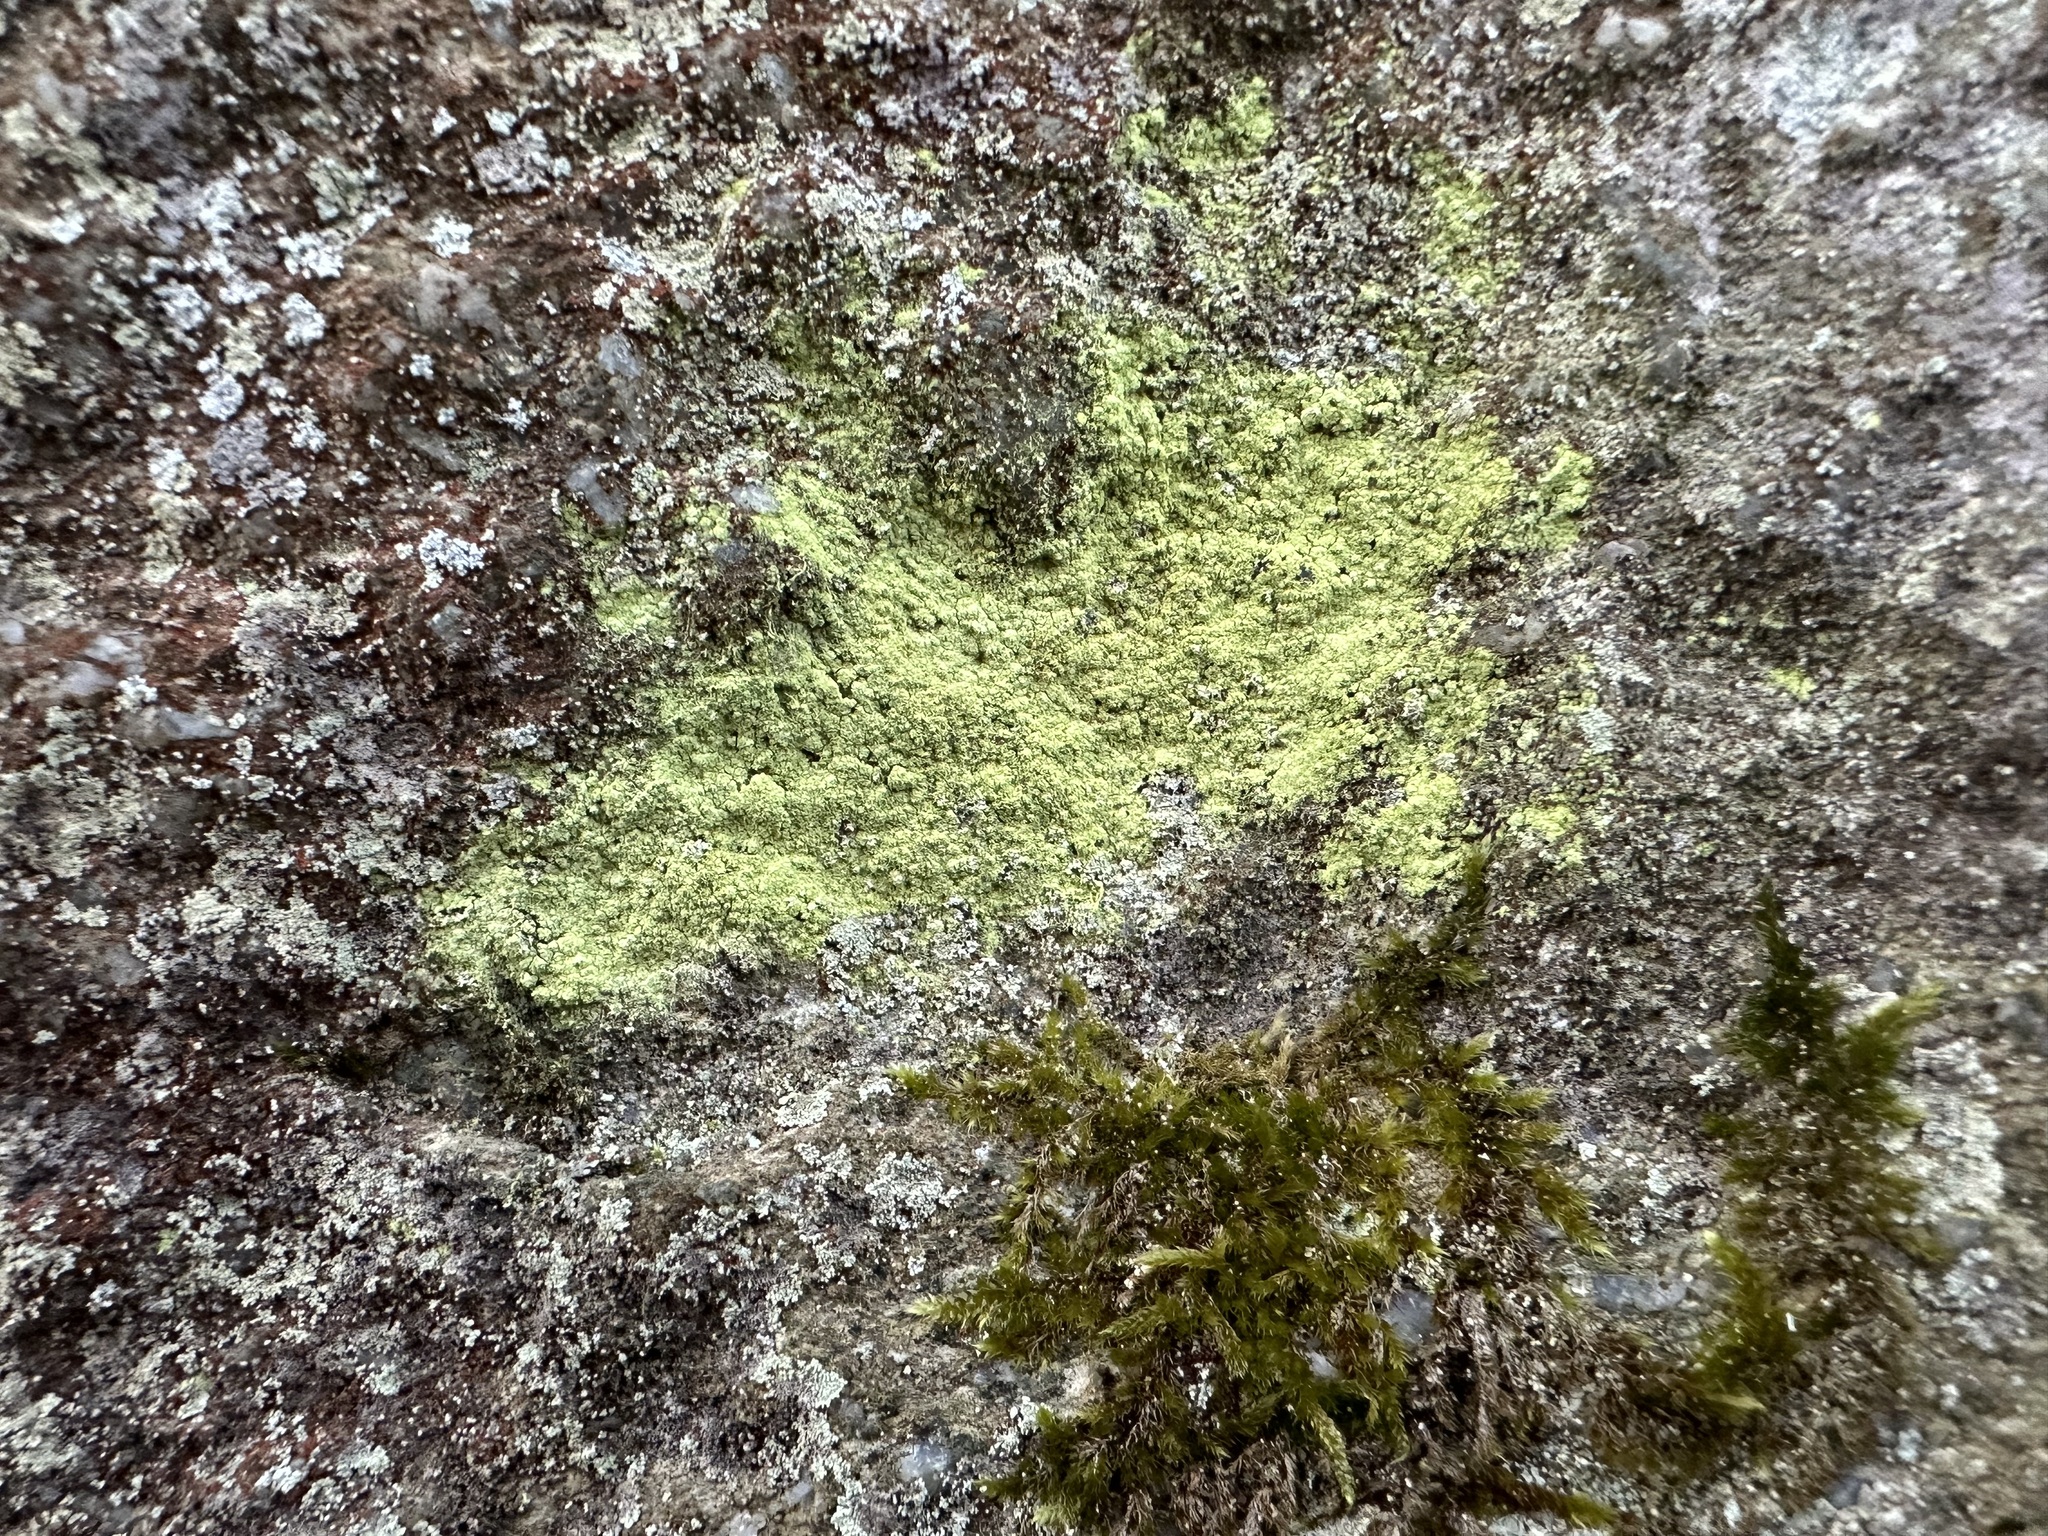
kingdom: Fungi
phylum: Ascomycota
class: Lecanoromycetes
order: Lecanorales
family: Psilolechiaceae
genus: Psilolechia
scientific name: Psilolechia lucida
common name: Sulphur dust lichen
